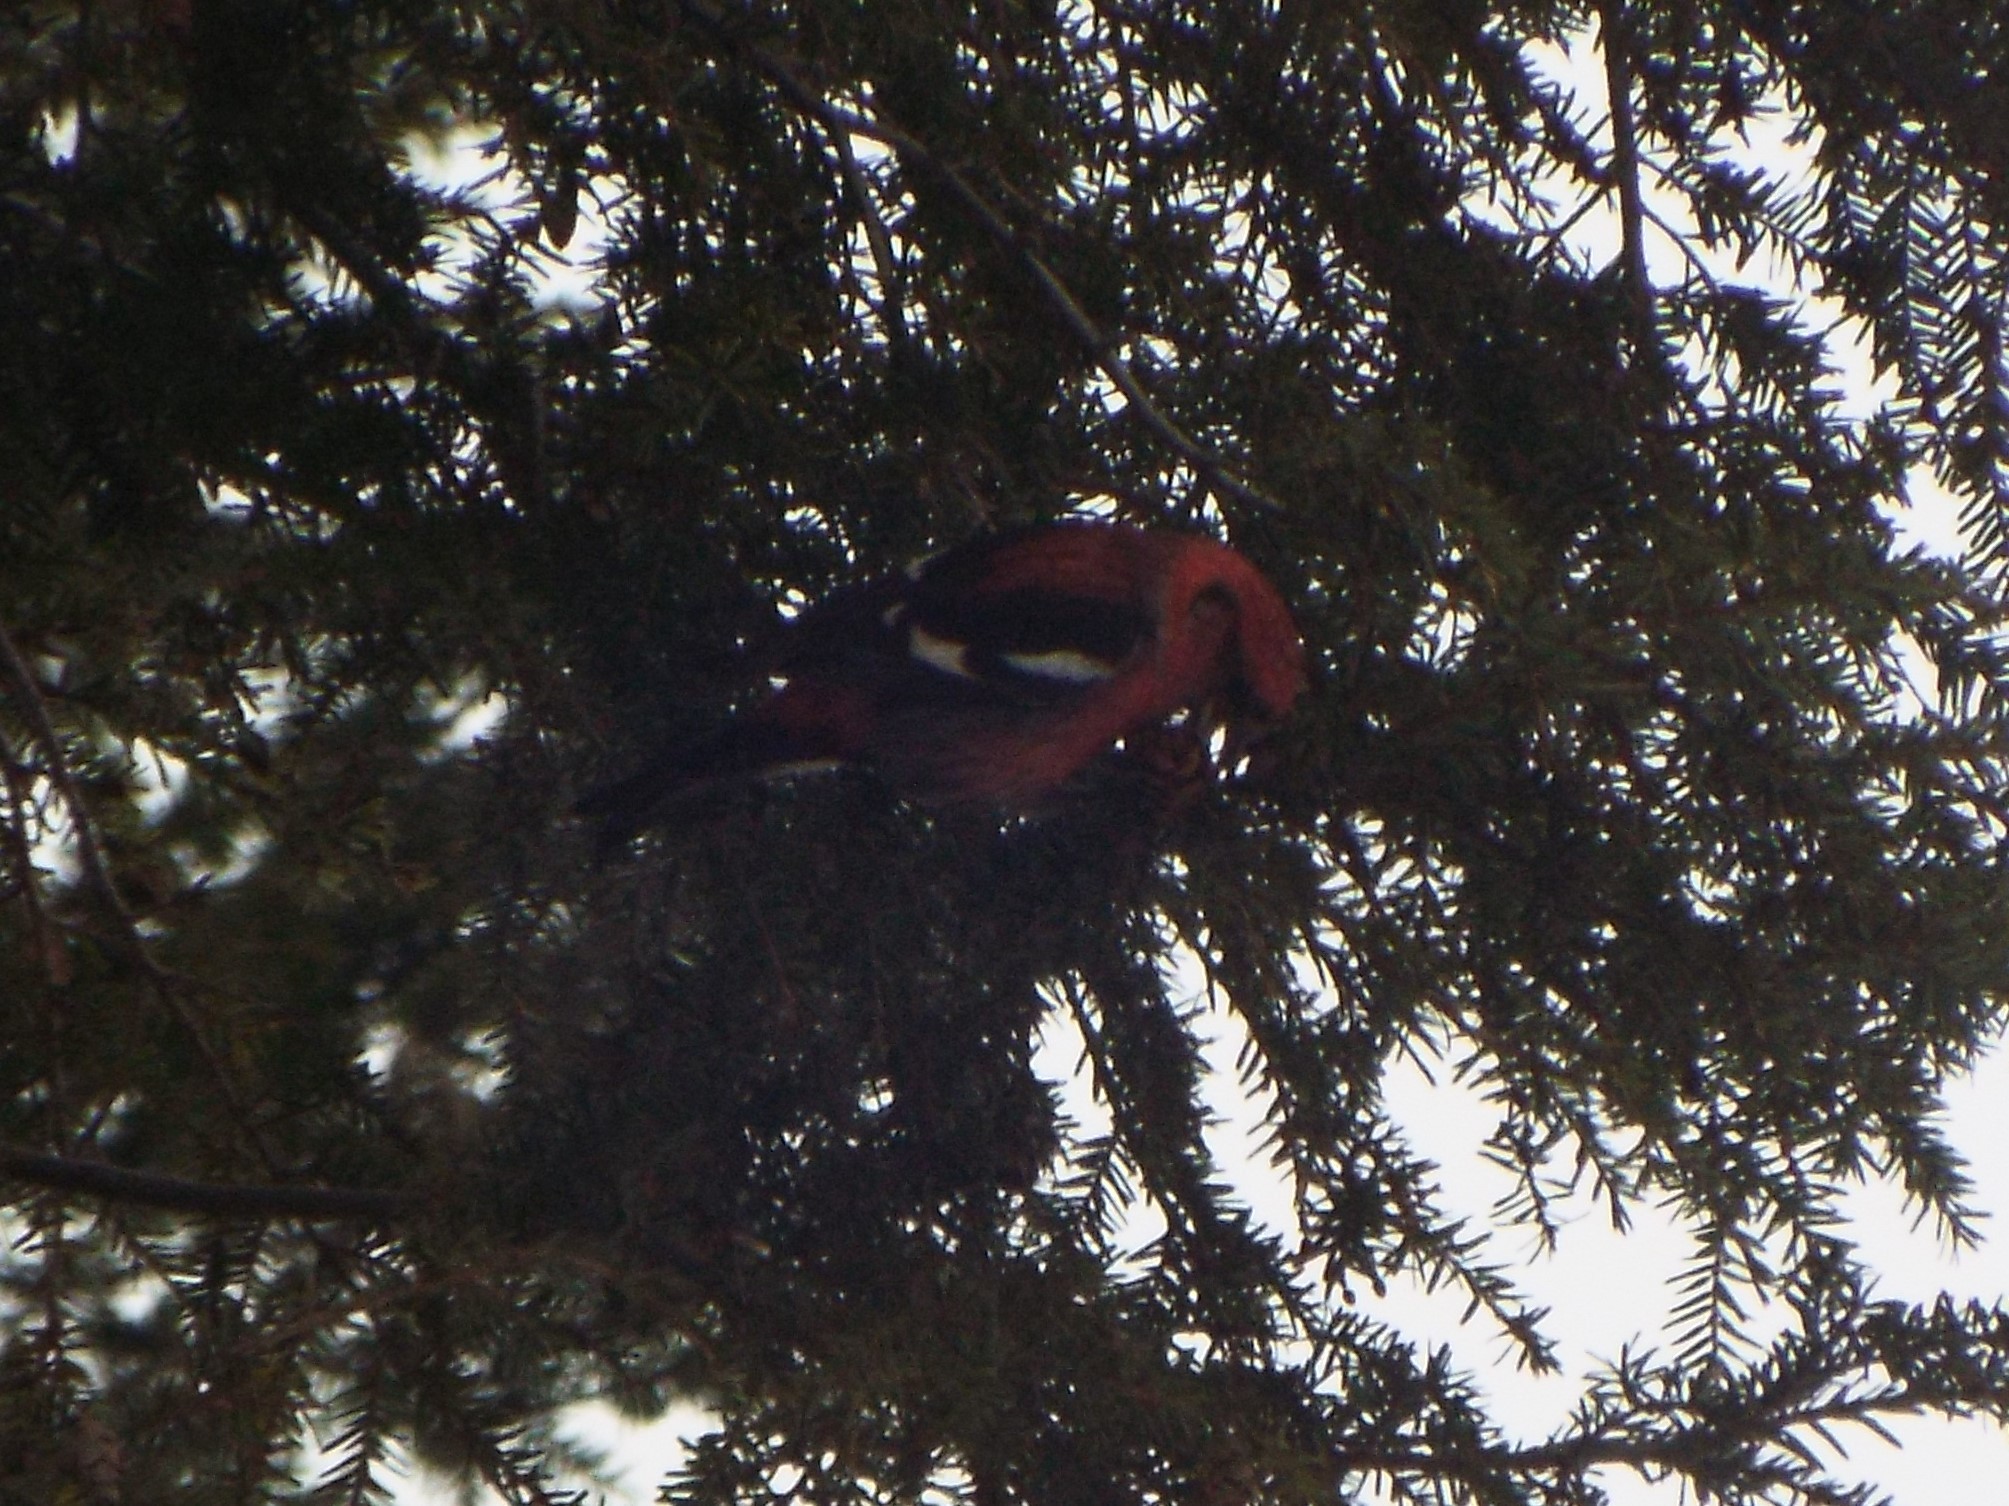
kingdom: Animalia
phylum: Chordata
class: Aves
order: Passeriformes
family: Fringillidae
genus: Loxia
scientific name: Loxia leucoptera
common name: Two-barred crossbill
